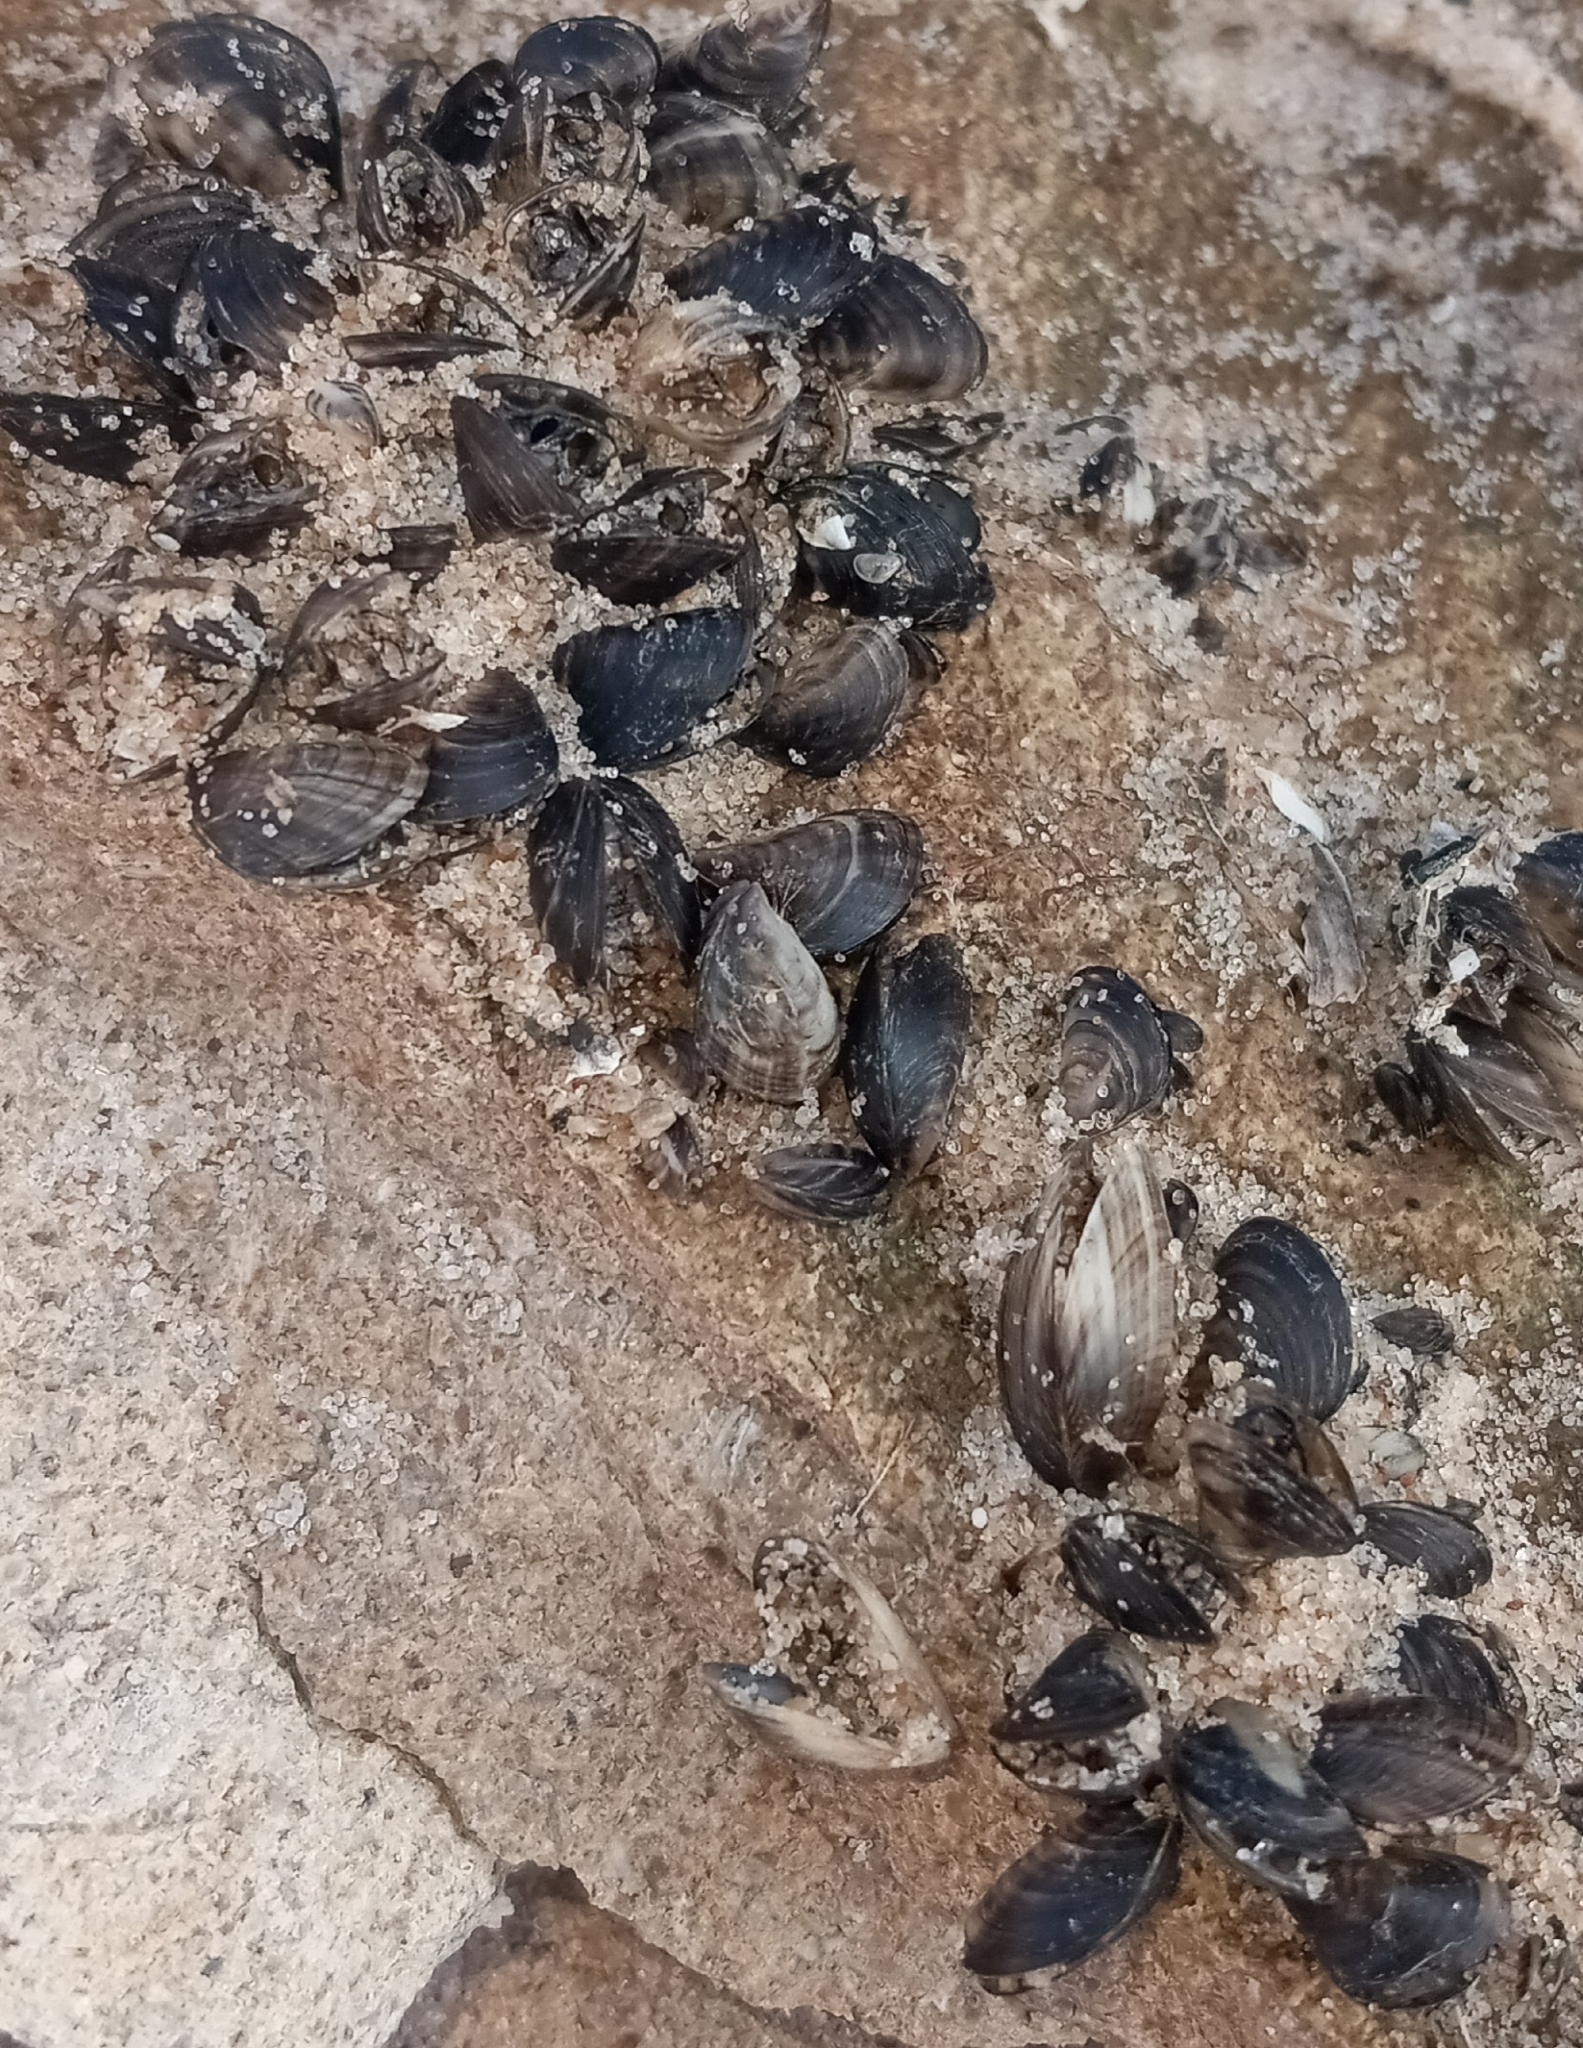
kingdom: Animalia
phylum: Mollusca
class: Bivalvia
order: Myida
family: Dreissenidae
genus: Dreissena
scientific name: Dreissena bugensis
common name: Quagga mussel
